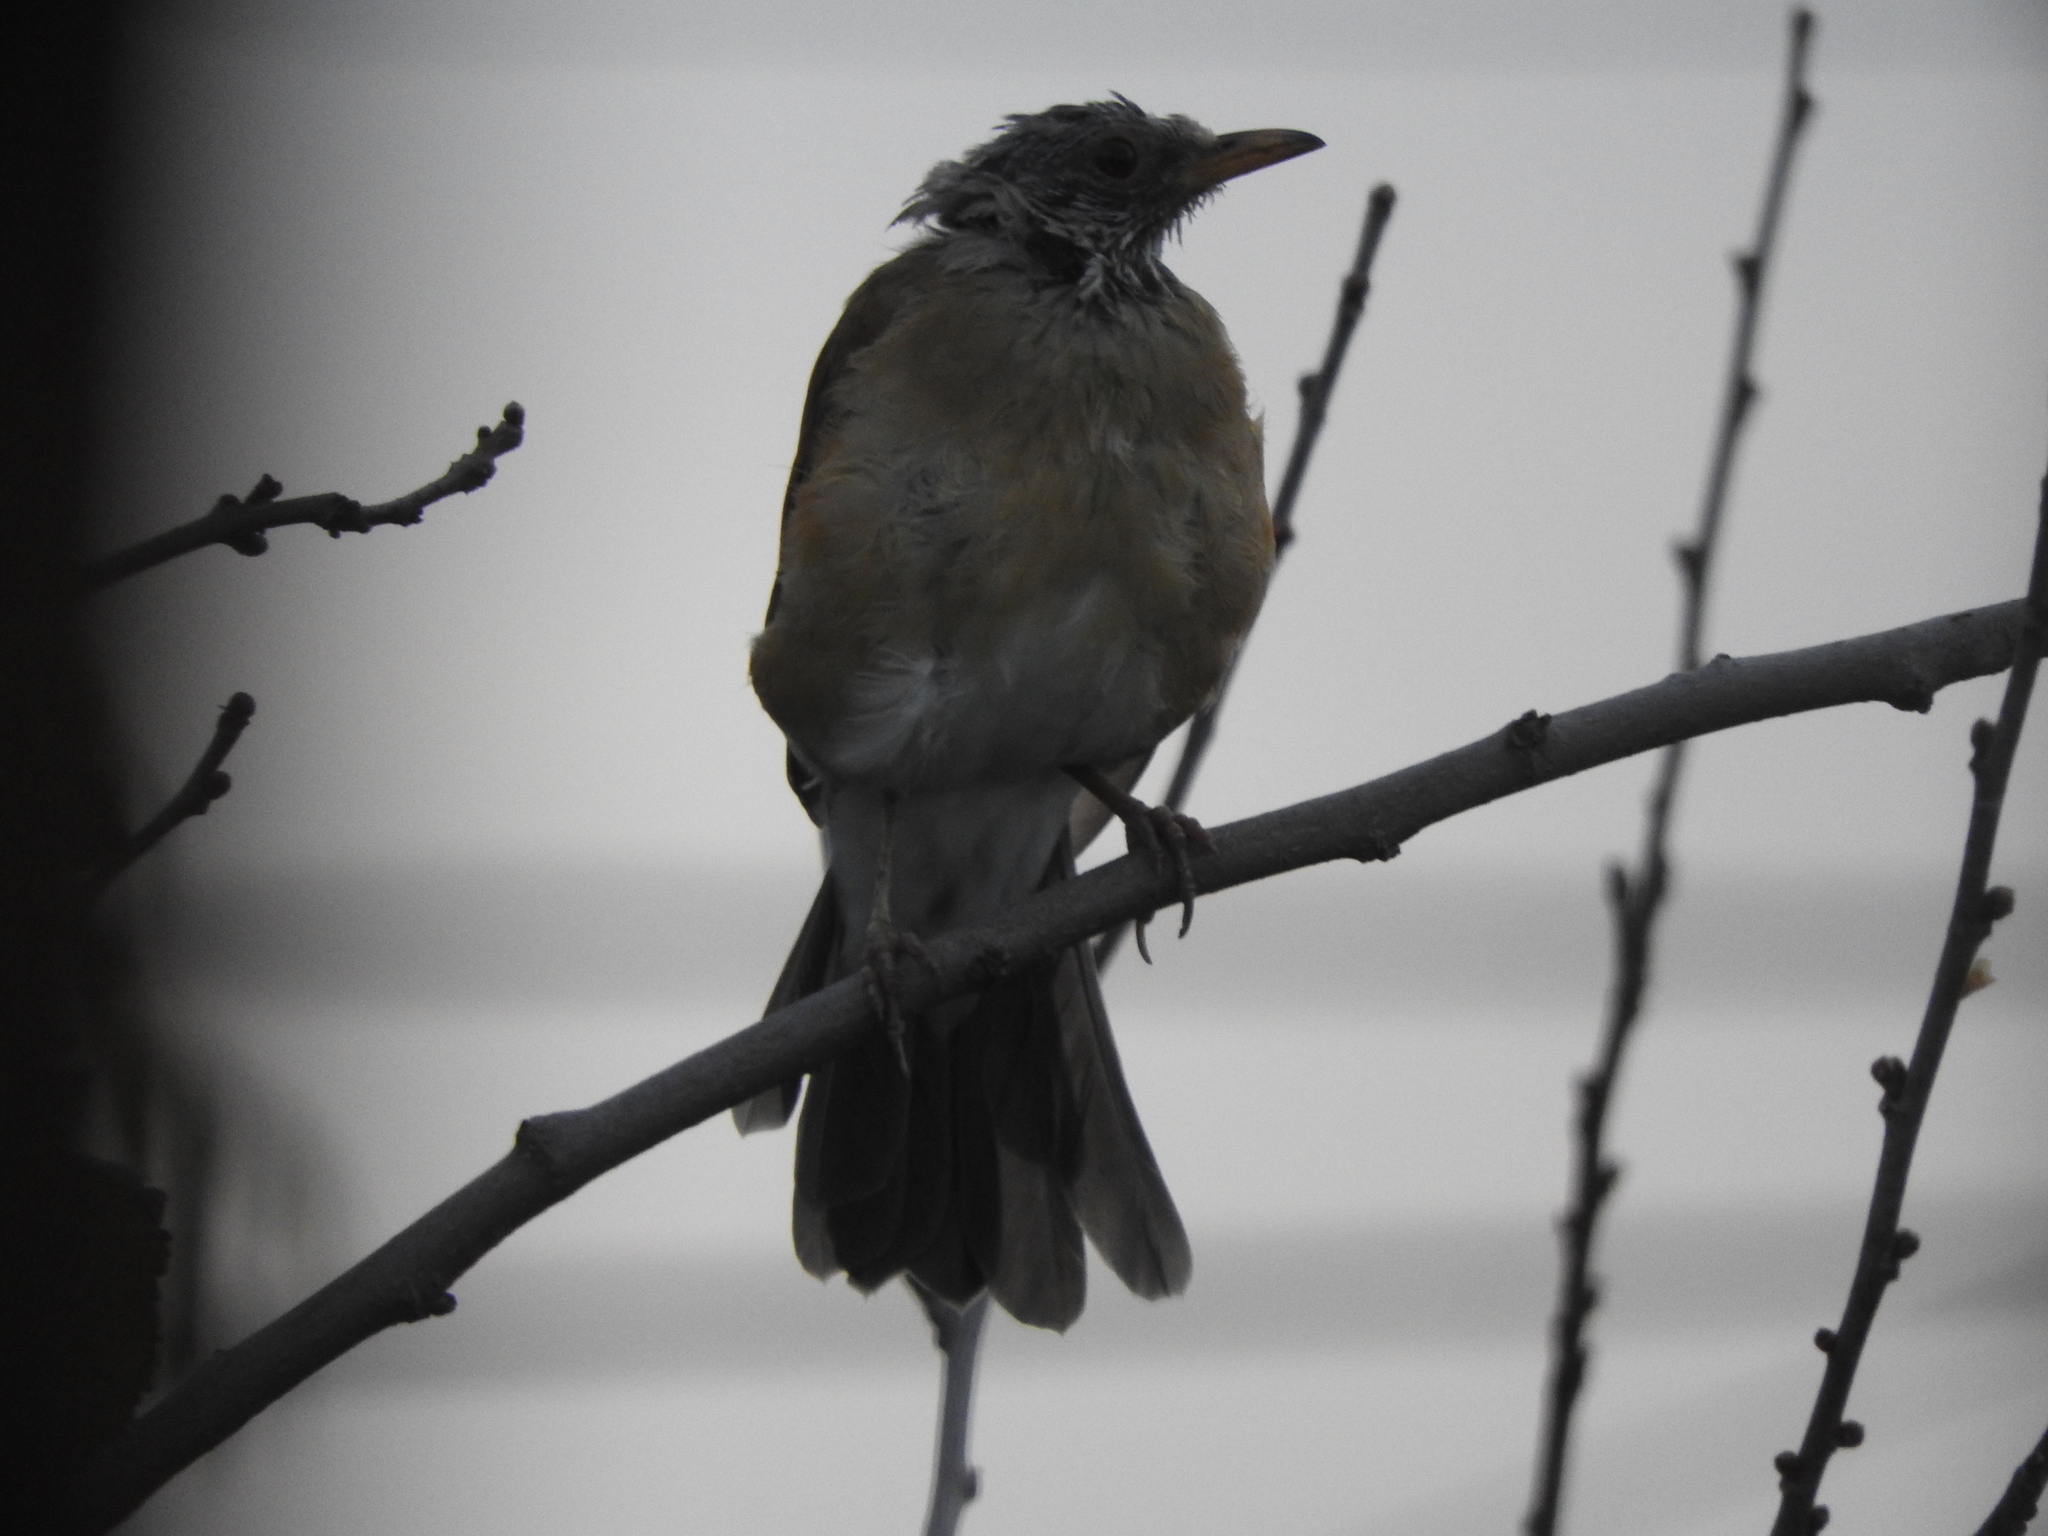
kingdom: Animalia
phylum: Chordata
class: Aves
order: Passeriformes
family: Turdidae
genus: Turdus
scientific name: Turdus rufopalliatus
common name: Rufous-backed robin
